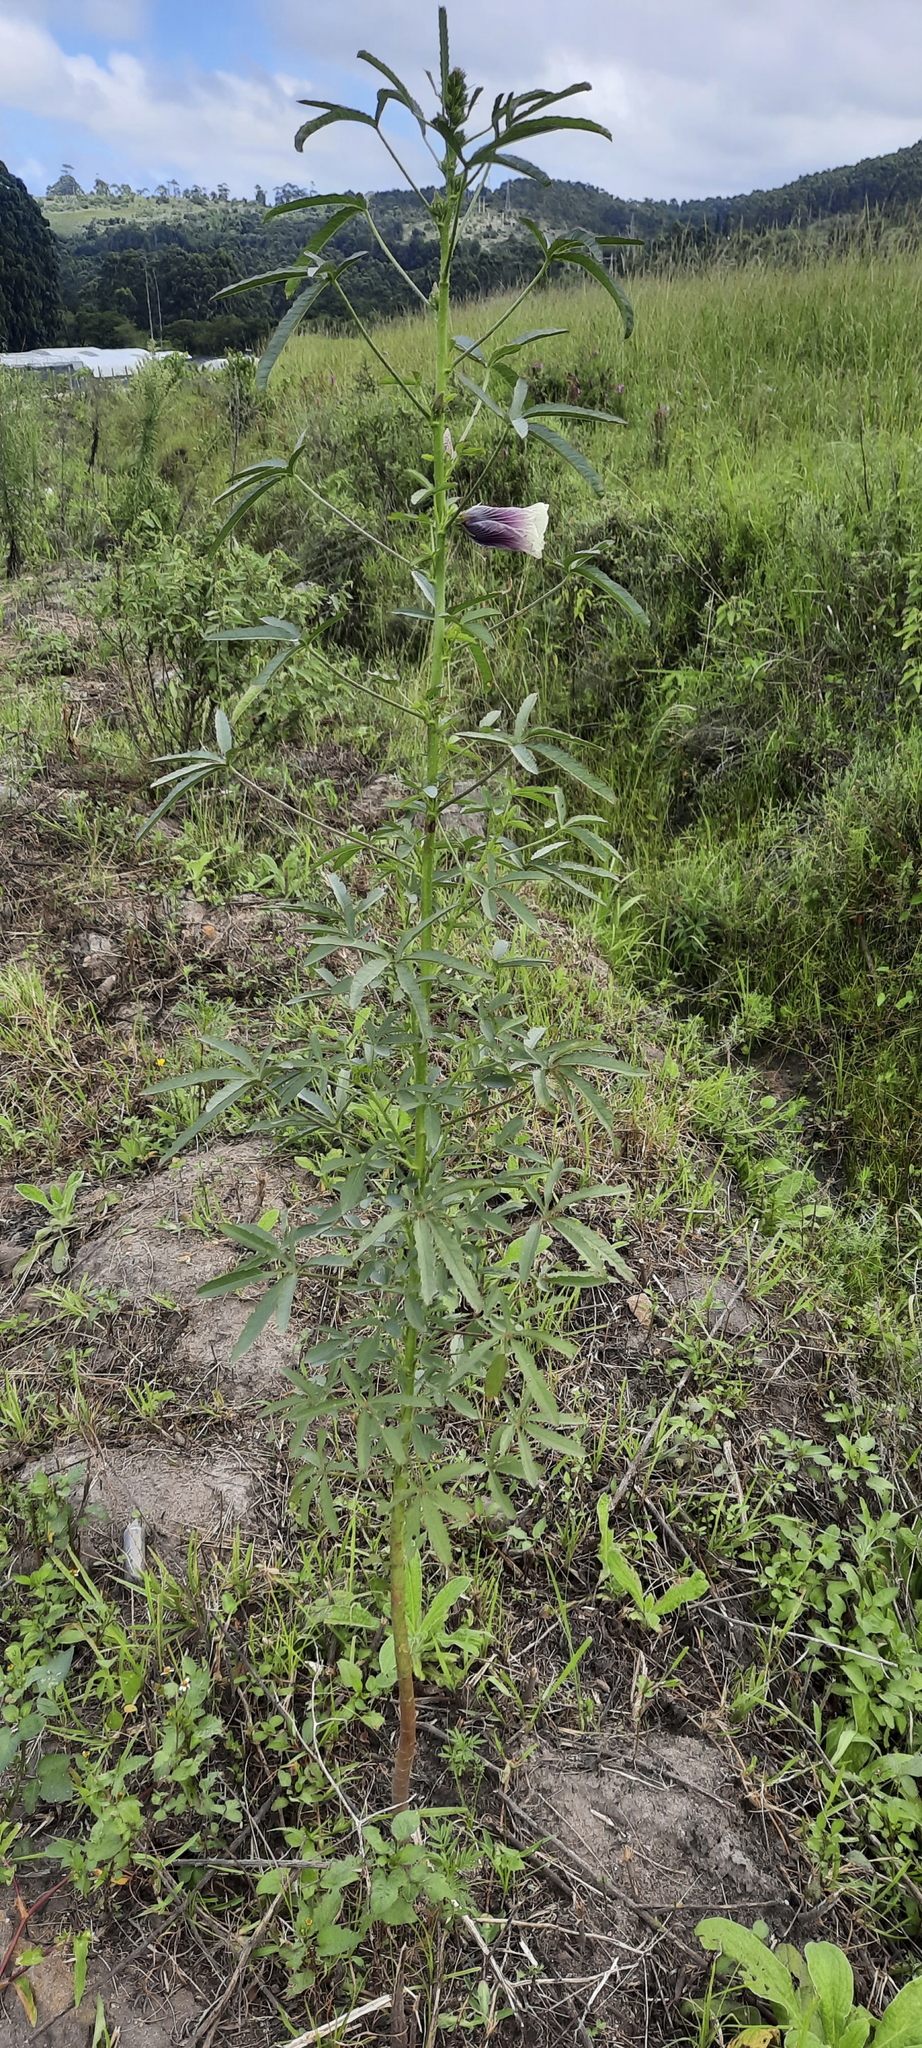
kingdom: Plantae
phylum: Tracheophyta
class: Magnoliopsida
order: Malvales
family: Malvaceae
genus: Hibiscus
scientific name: Hibiscus cannabinus
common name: Brown indianhemp
